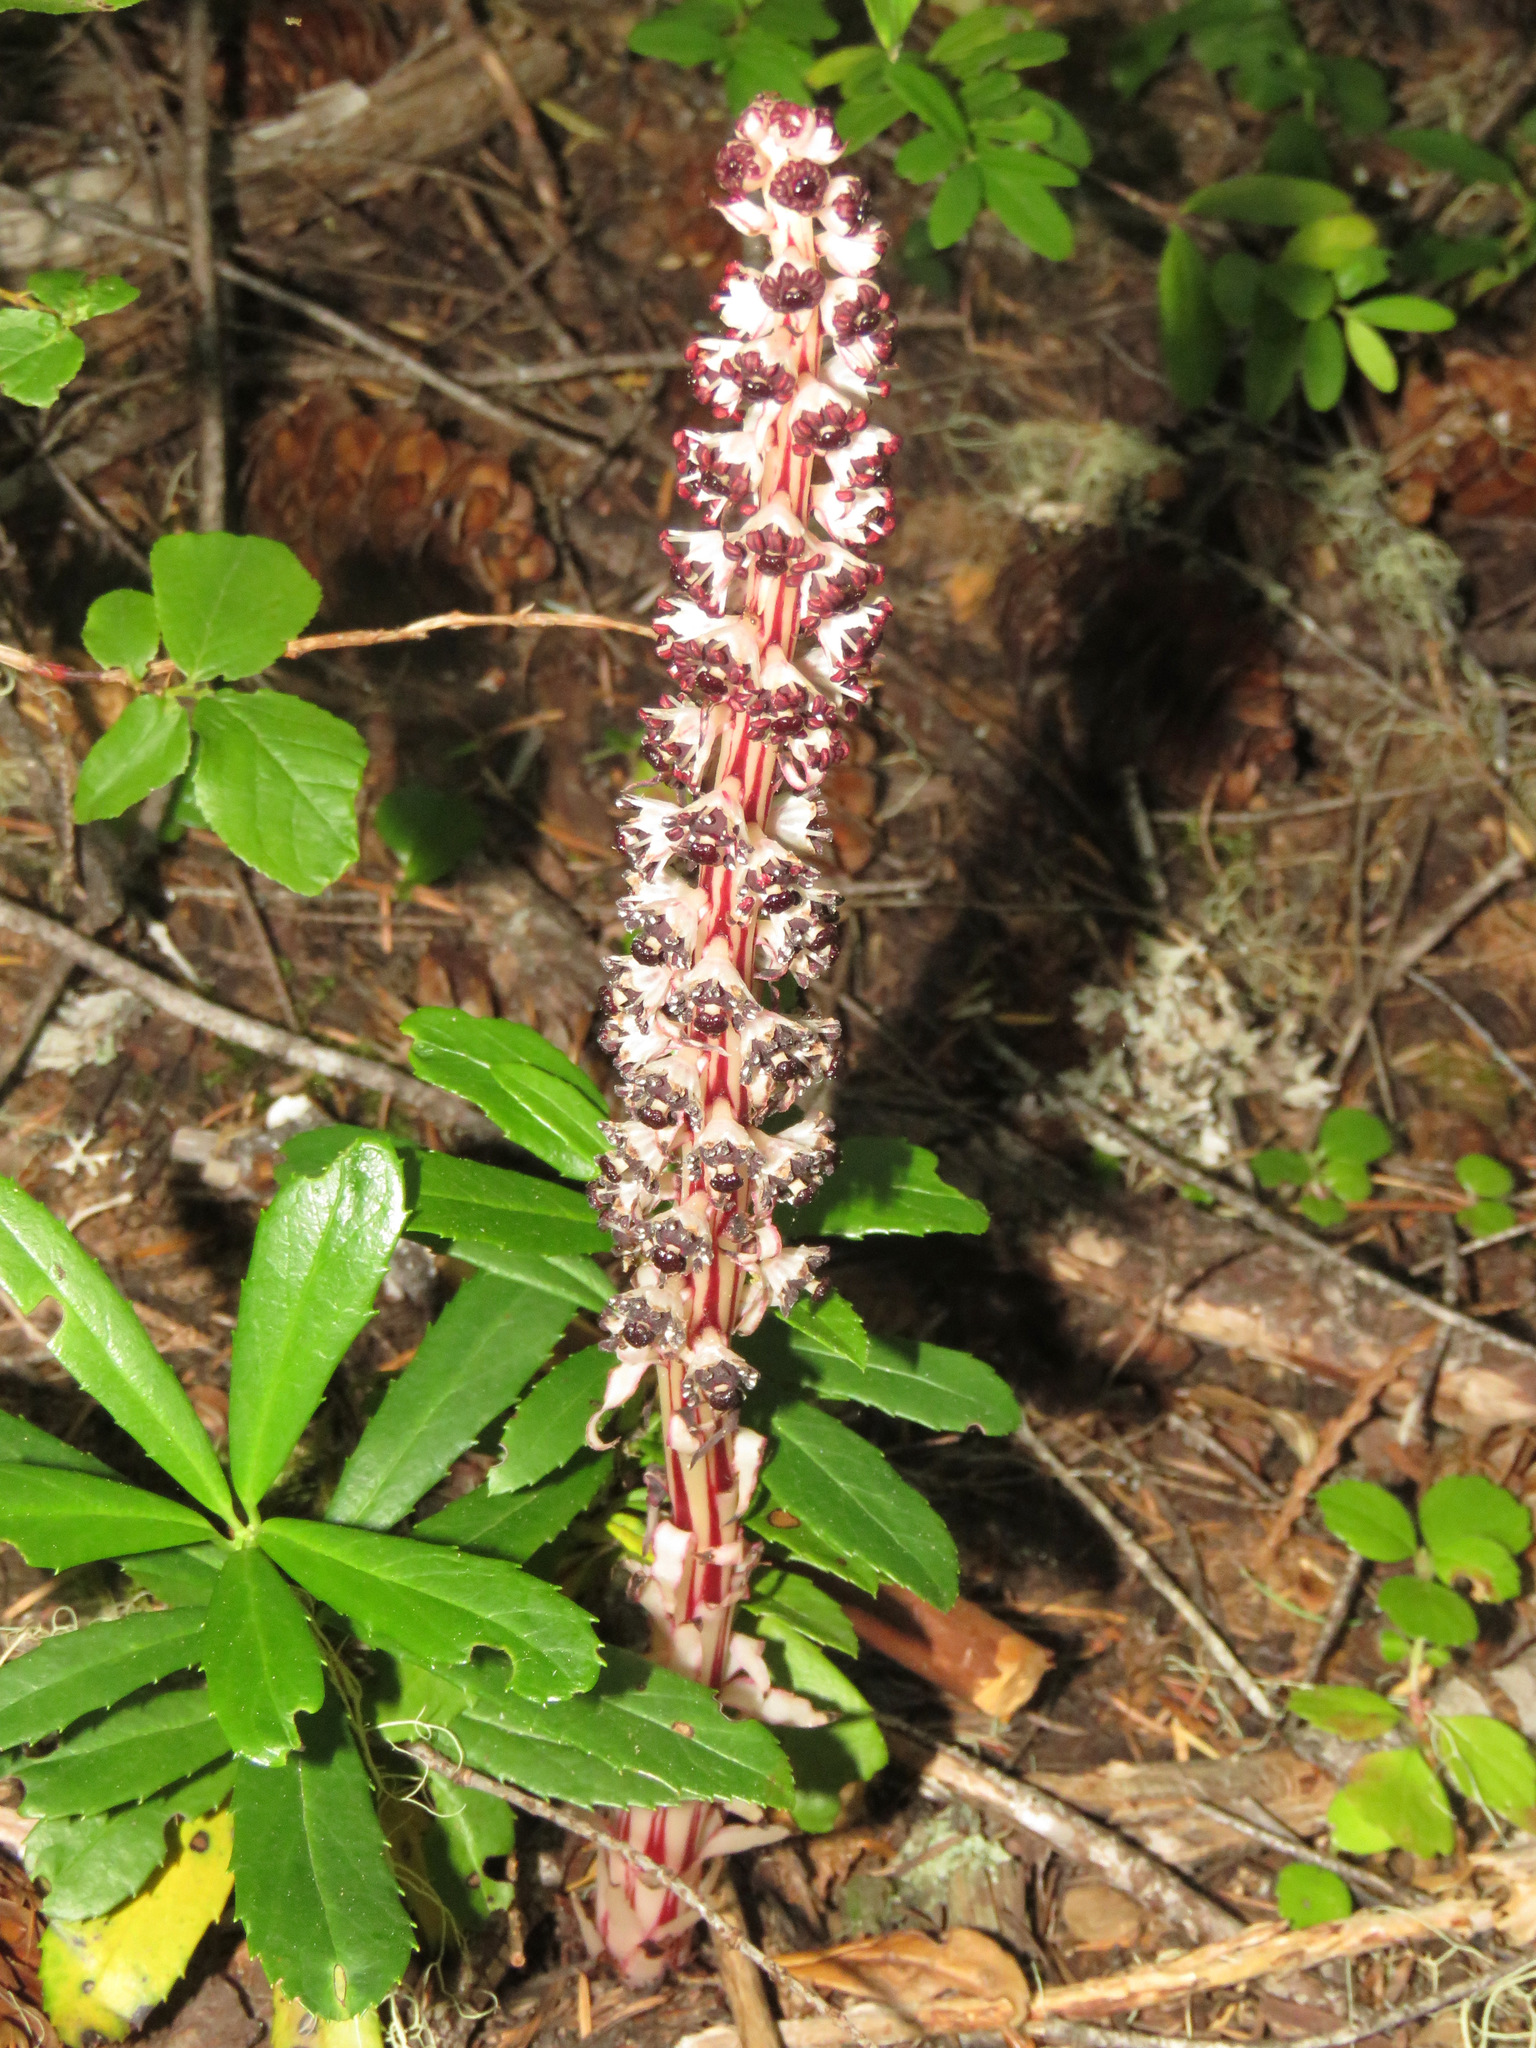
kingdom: Plantae
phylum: Tracheophyta
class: Magnoliopsida
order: Ericales
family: Ericaceae
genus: Allotropa
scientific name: Allotropa virgata
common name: Candy-striped allotropa
